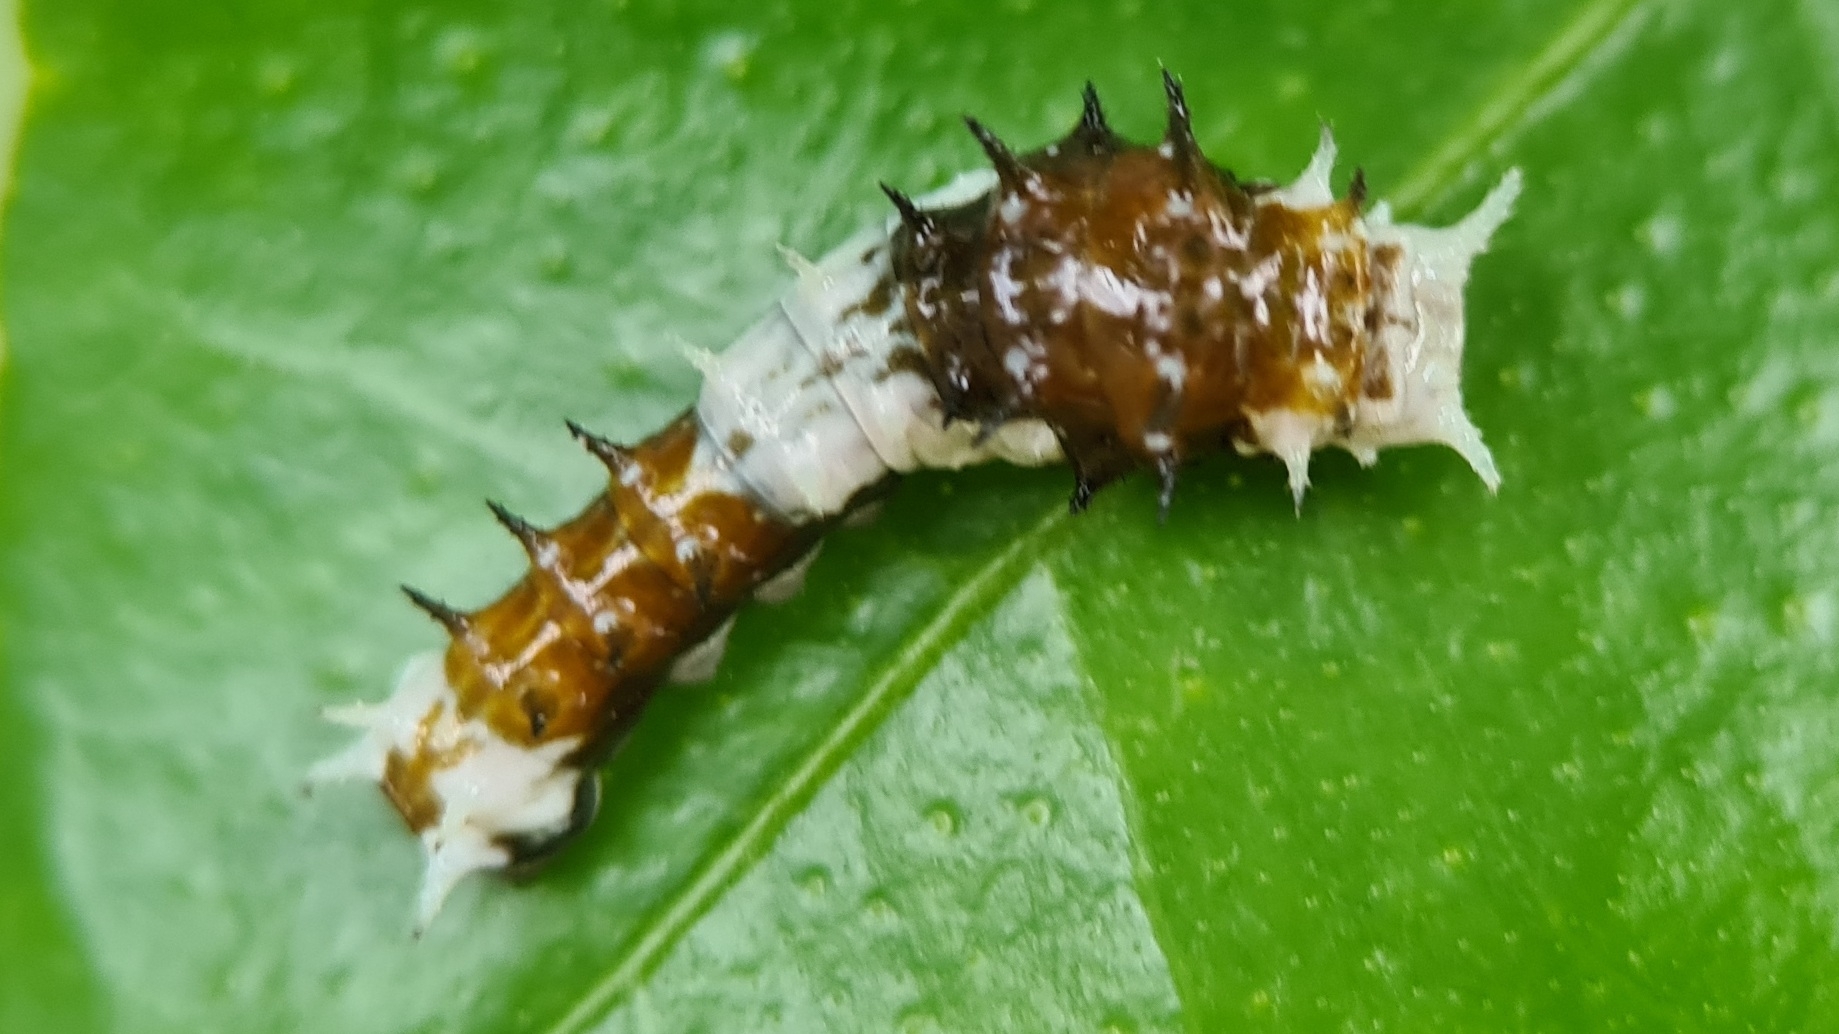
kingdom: Animalia
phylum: Arthropoda
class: Insecta
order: Lepidoptera
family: Papilionidae
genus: Papilio
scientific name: Papilio aegeus
